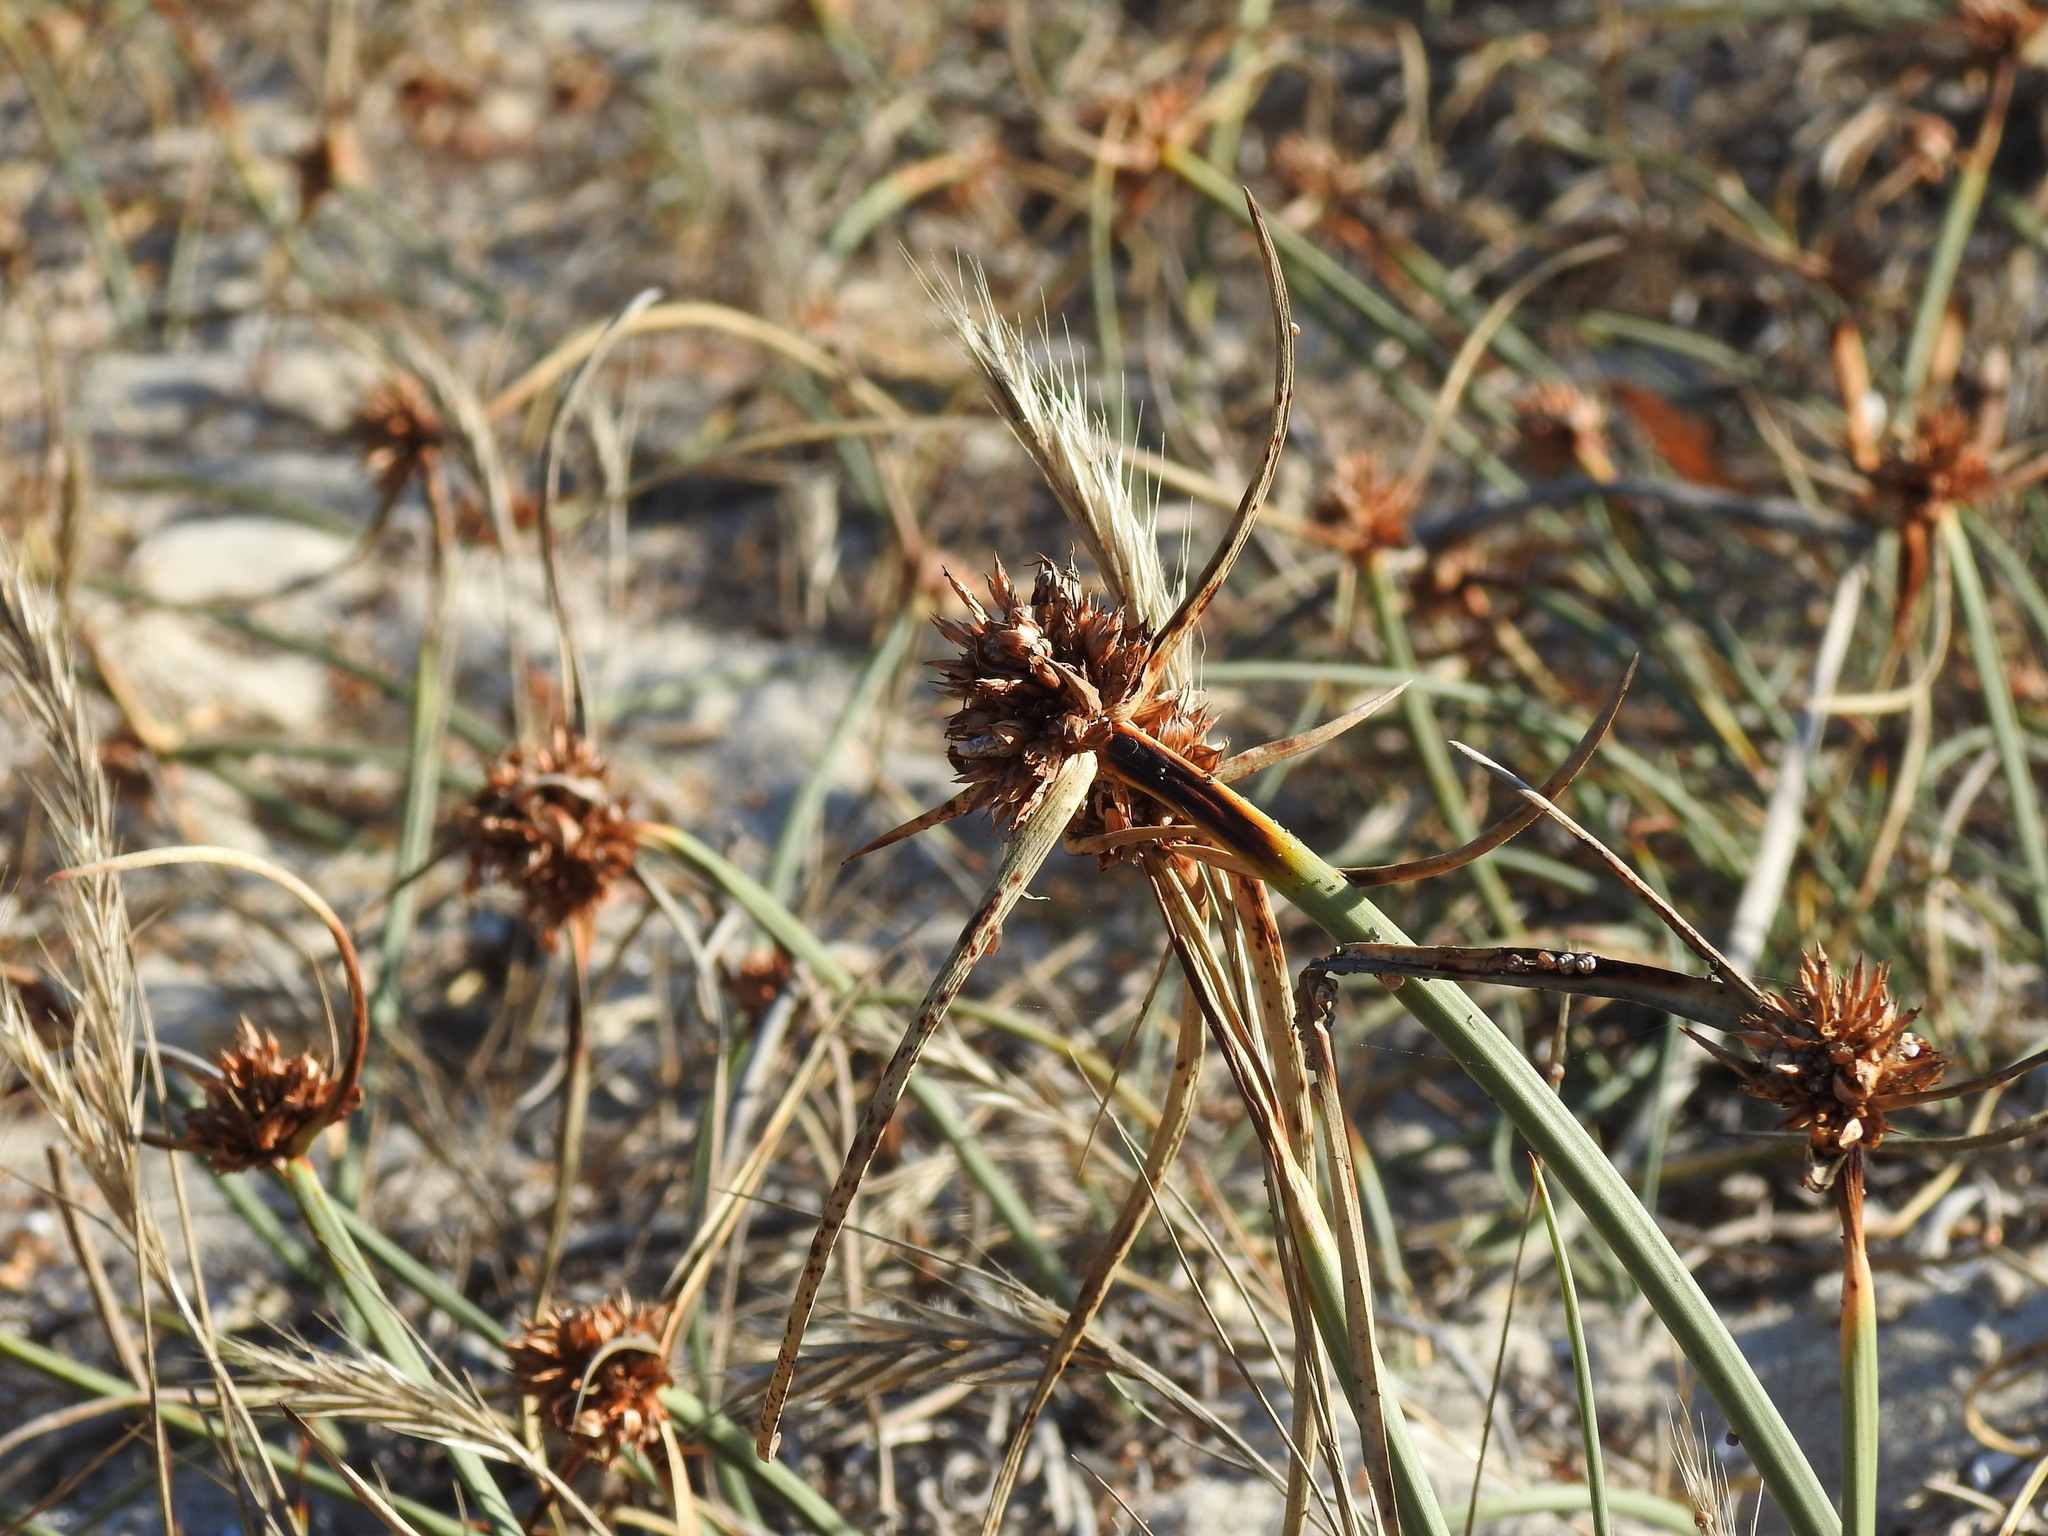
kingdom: Plantae
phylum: Tracheophyta
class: Liliopsida
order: Poales
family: Cyperaceae
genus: Cyperus
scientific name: Cyperus capitatus
